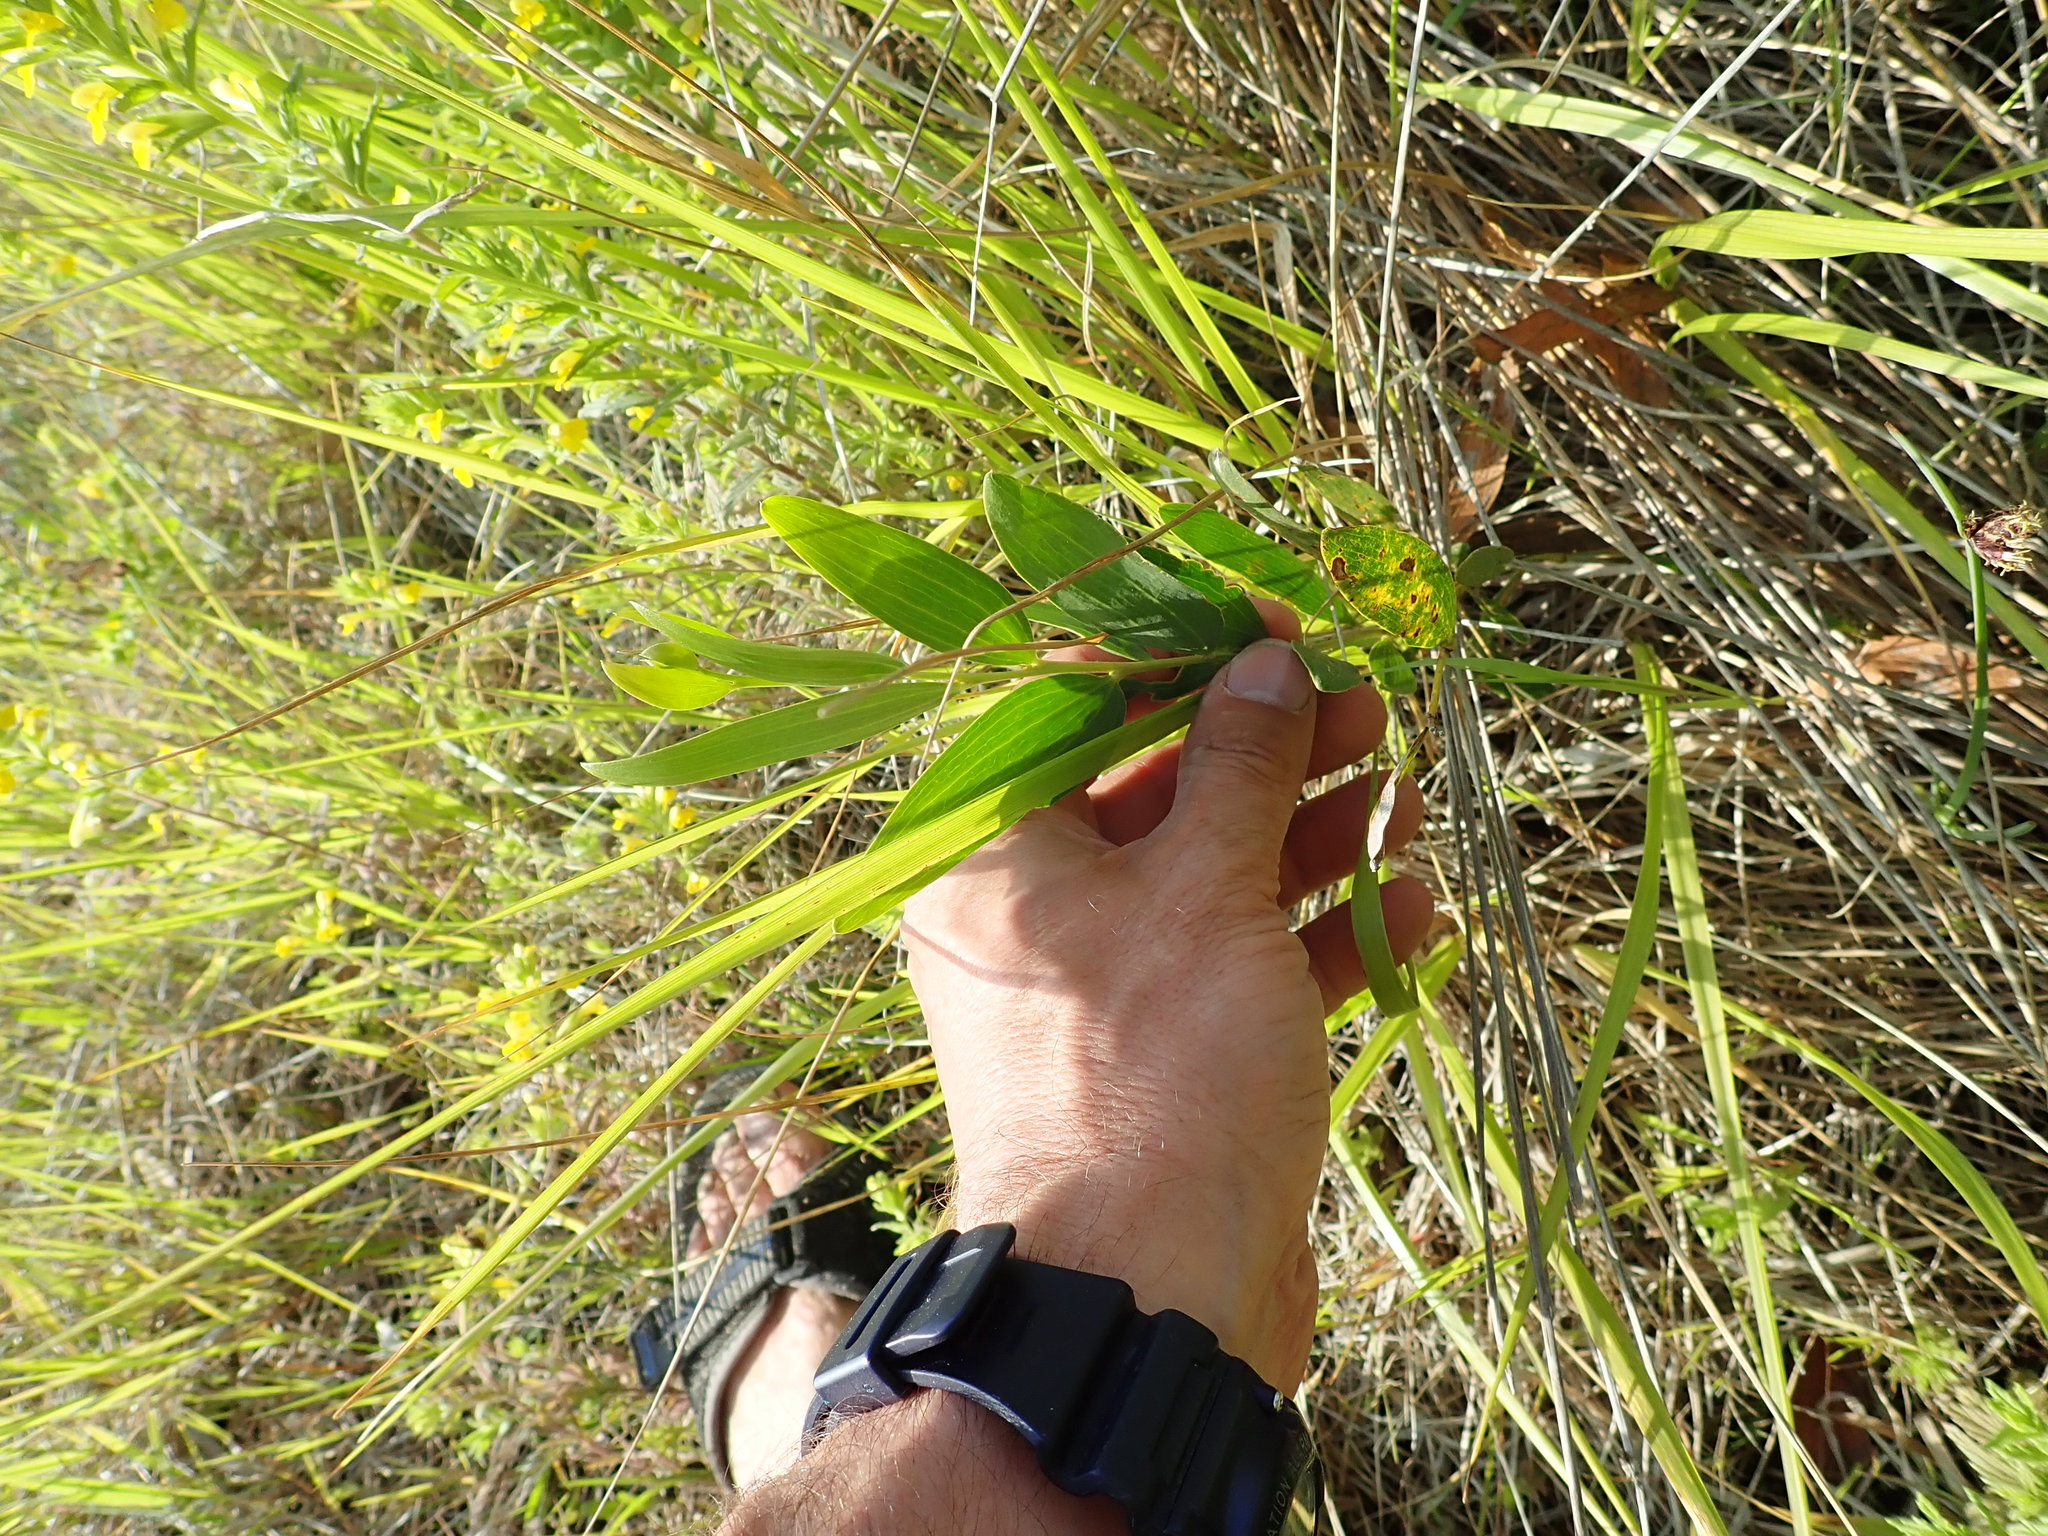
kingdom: Plantae
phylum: Tracheophyta
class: Magnoliopsida
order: Fabales
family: Fabaceae
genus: Acacia
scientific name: Acacia longifolia
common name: Sydney golden wattle
